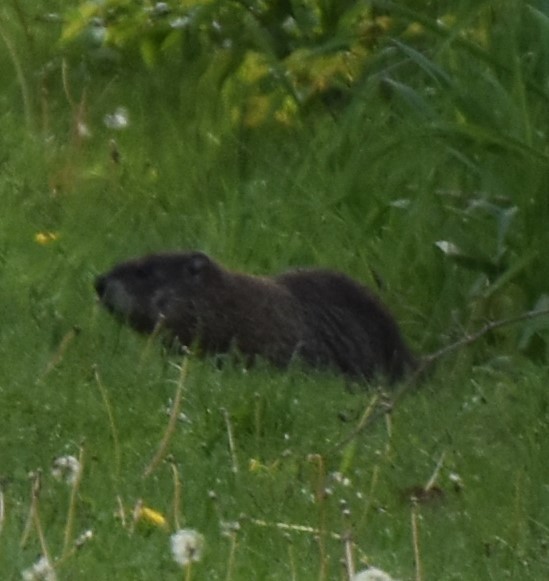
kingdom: Animalia
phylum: Chordata
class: Mammalia
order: Rodentia
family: Sciuridae
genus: Marmota
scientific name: Marmota monax
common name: Groundhog
